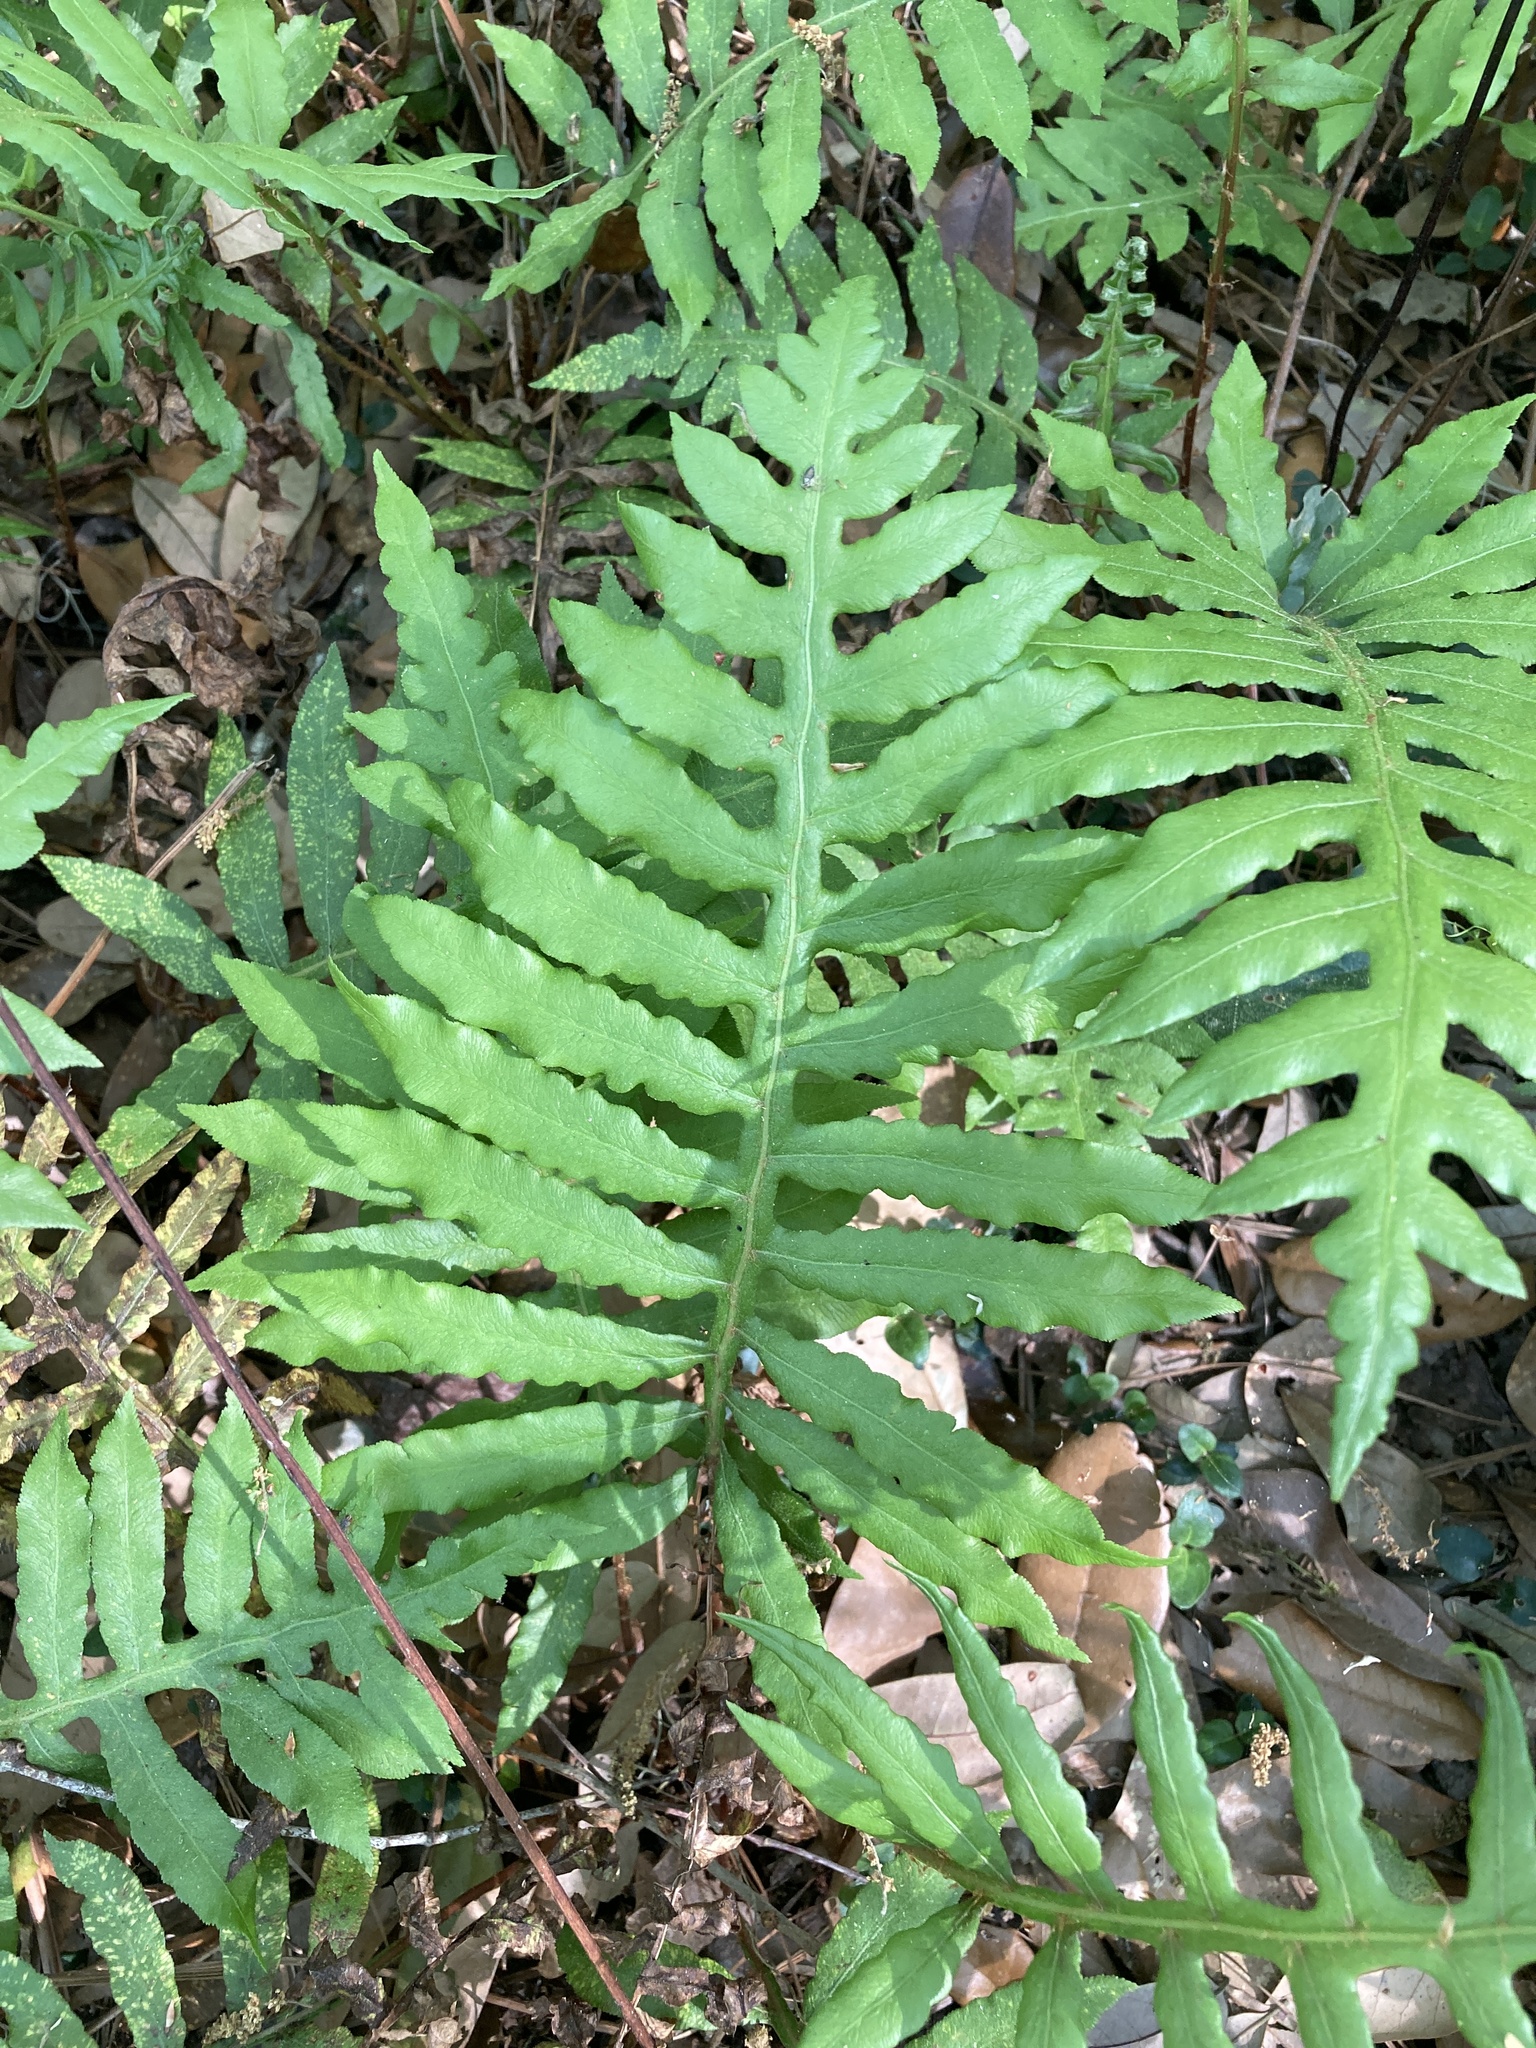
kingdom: Plantae
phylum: Tracheophyta
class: Polypodiopsida
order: Polypodiales
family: Blechnaceae
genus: Lorinseria
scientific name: Lorinseria areolata
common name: Dwarf chain fern
